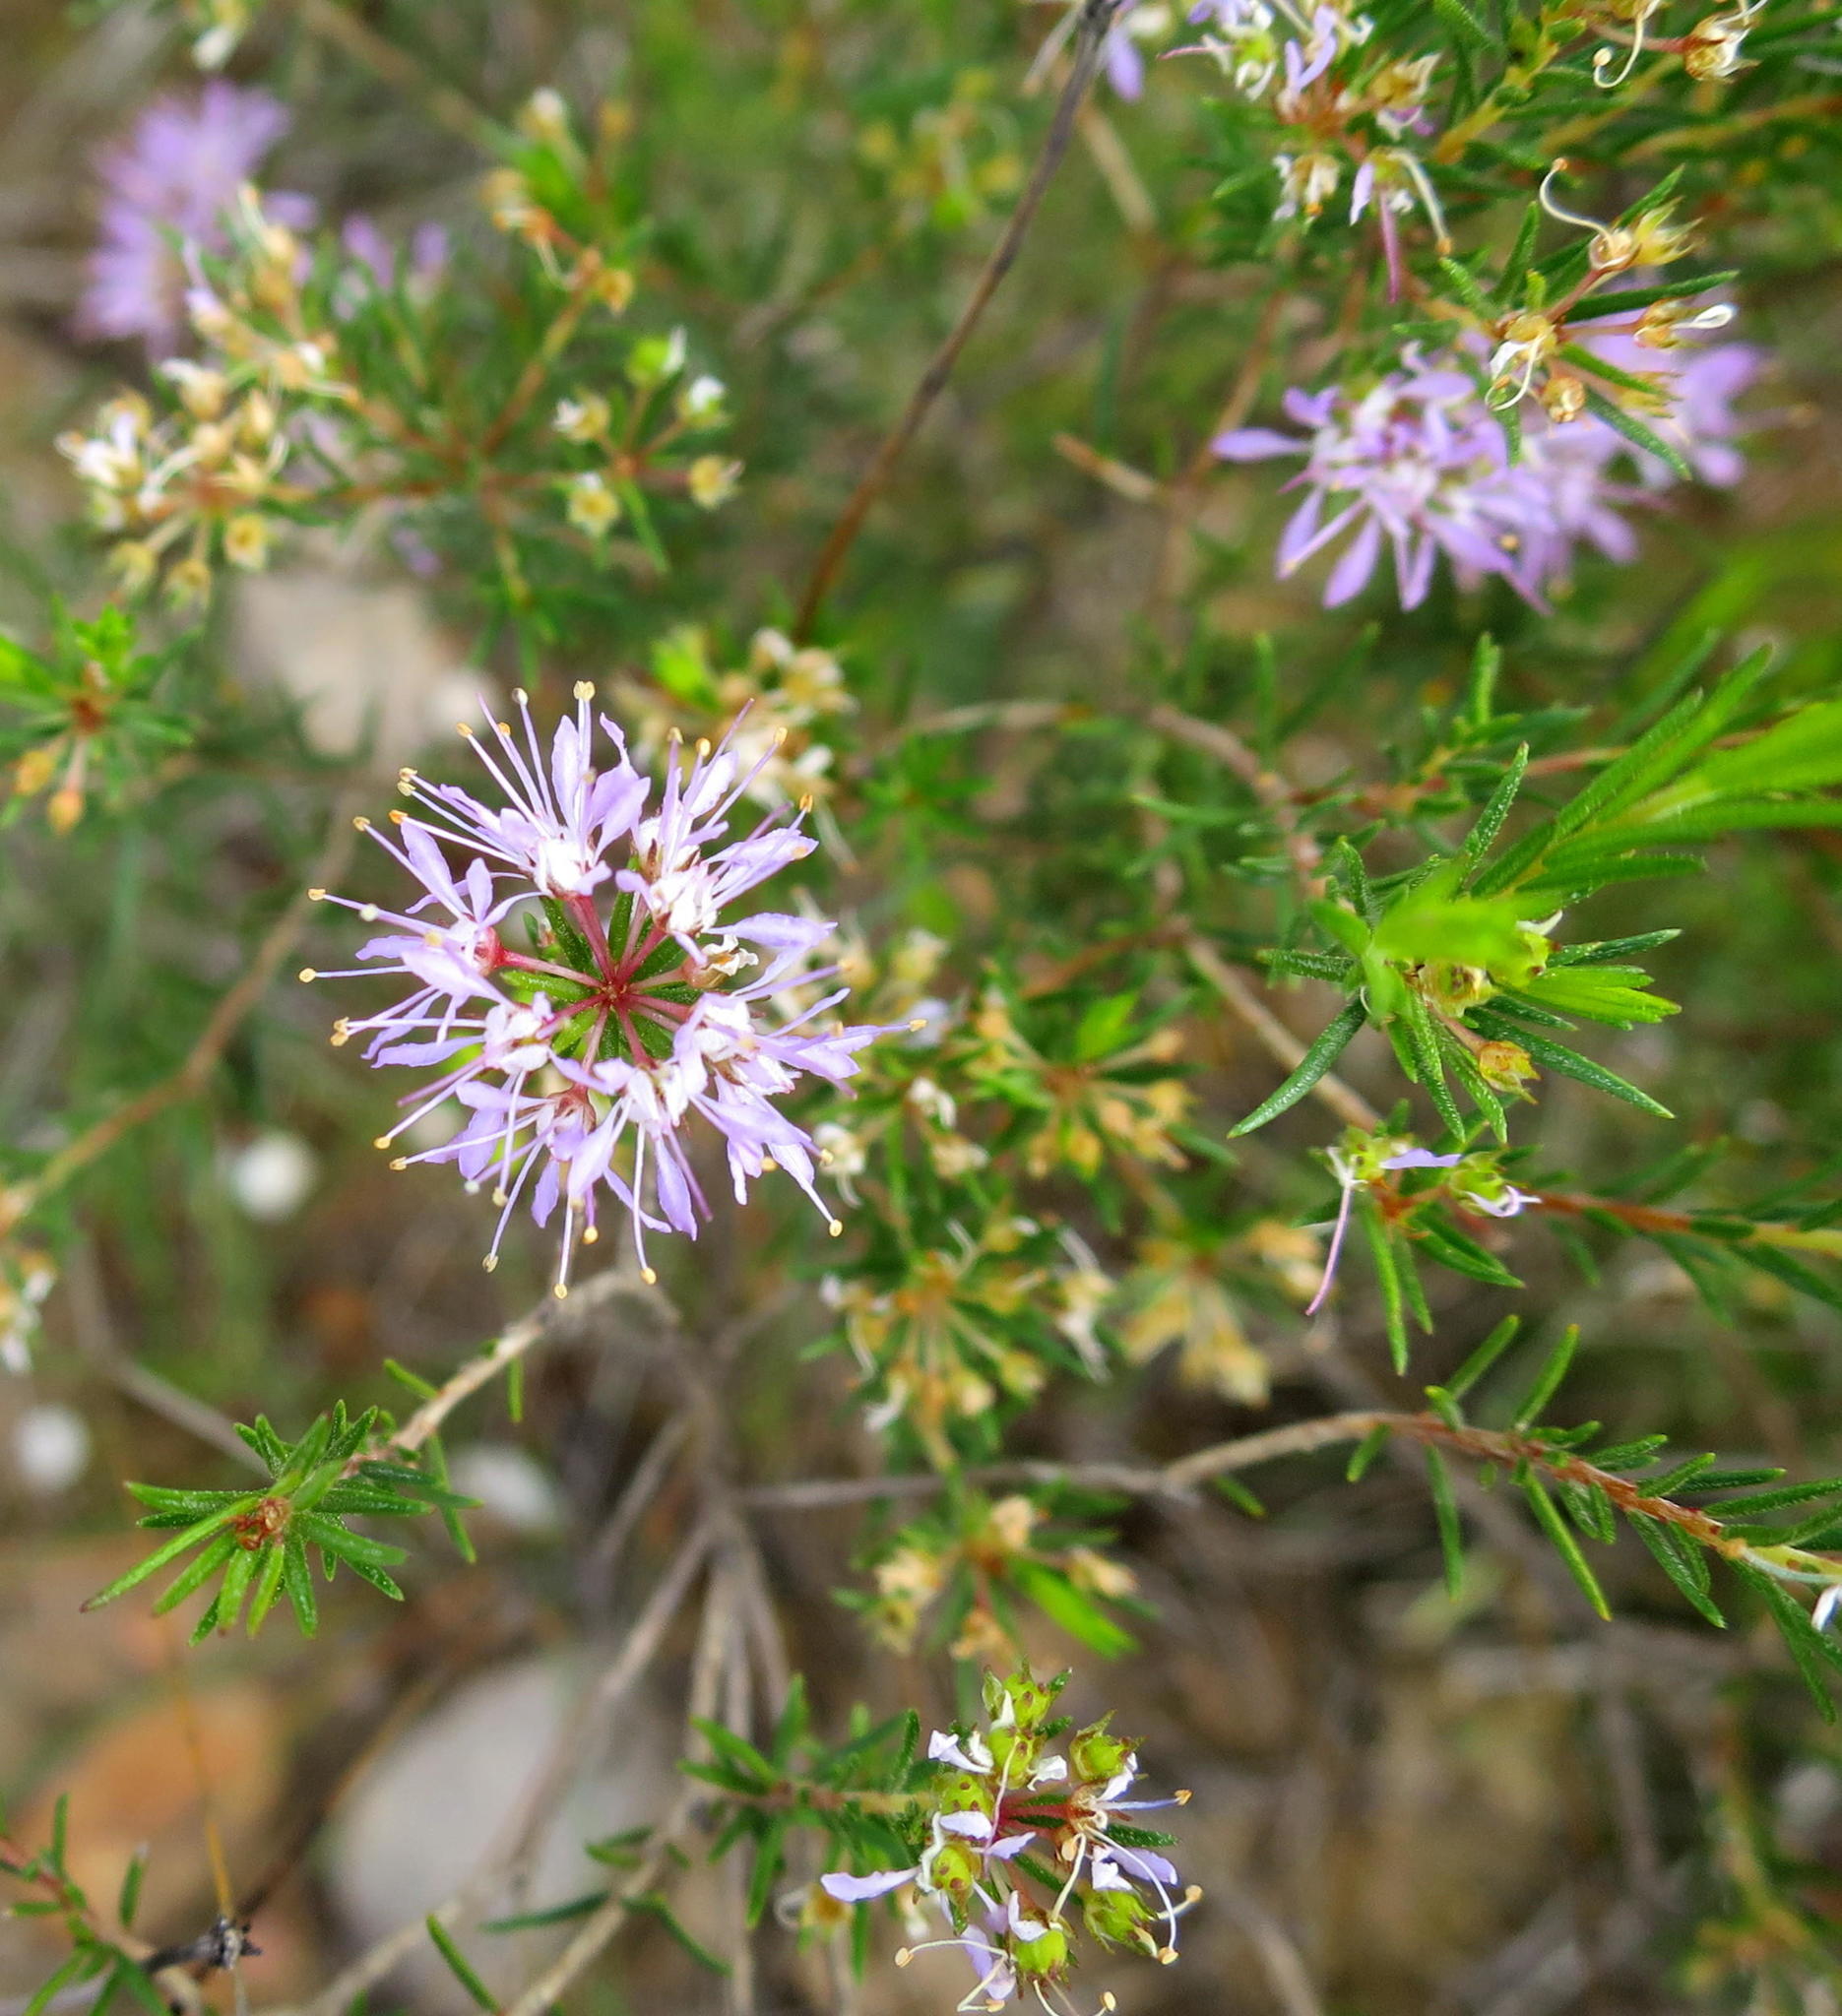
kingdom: Plantae
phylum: Tracheophyta
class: Magnoliopsida
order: Sapindales
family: Rutaceae
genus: Agathosma
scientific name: Agathosma
